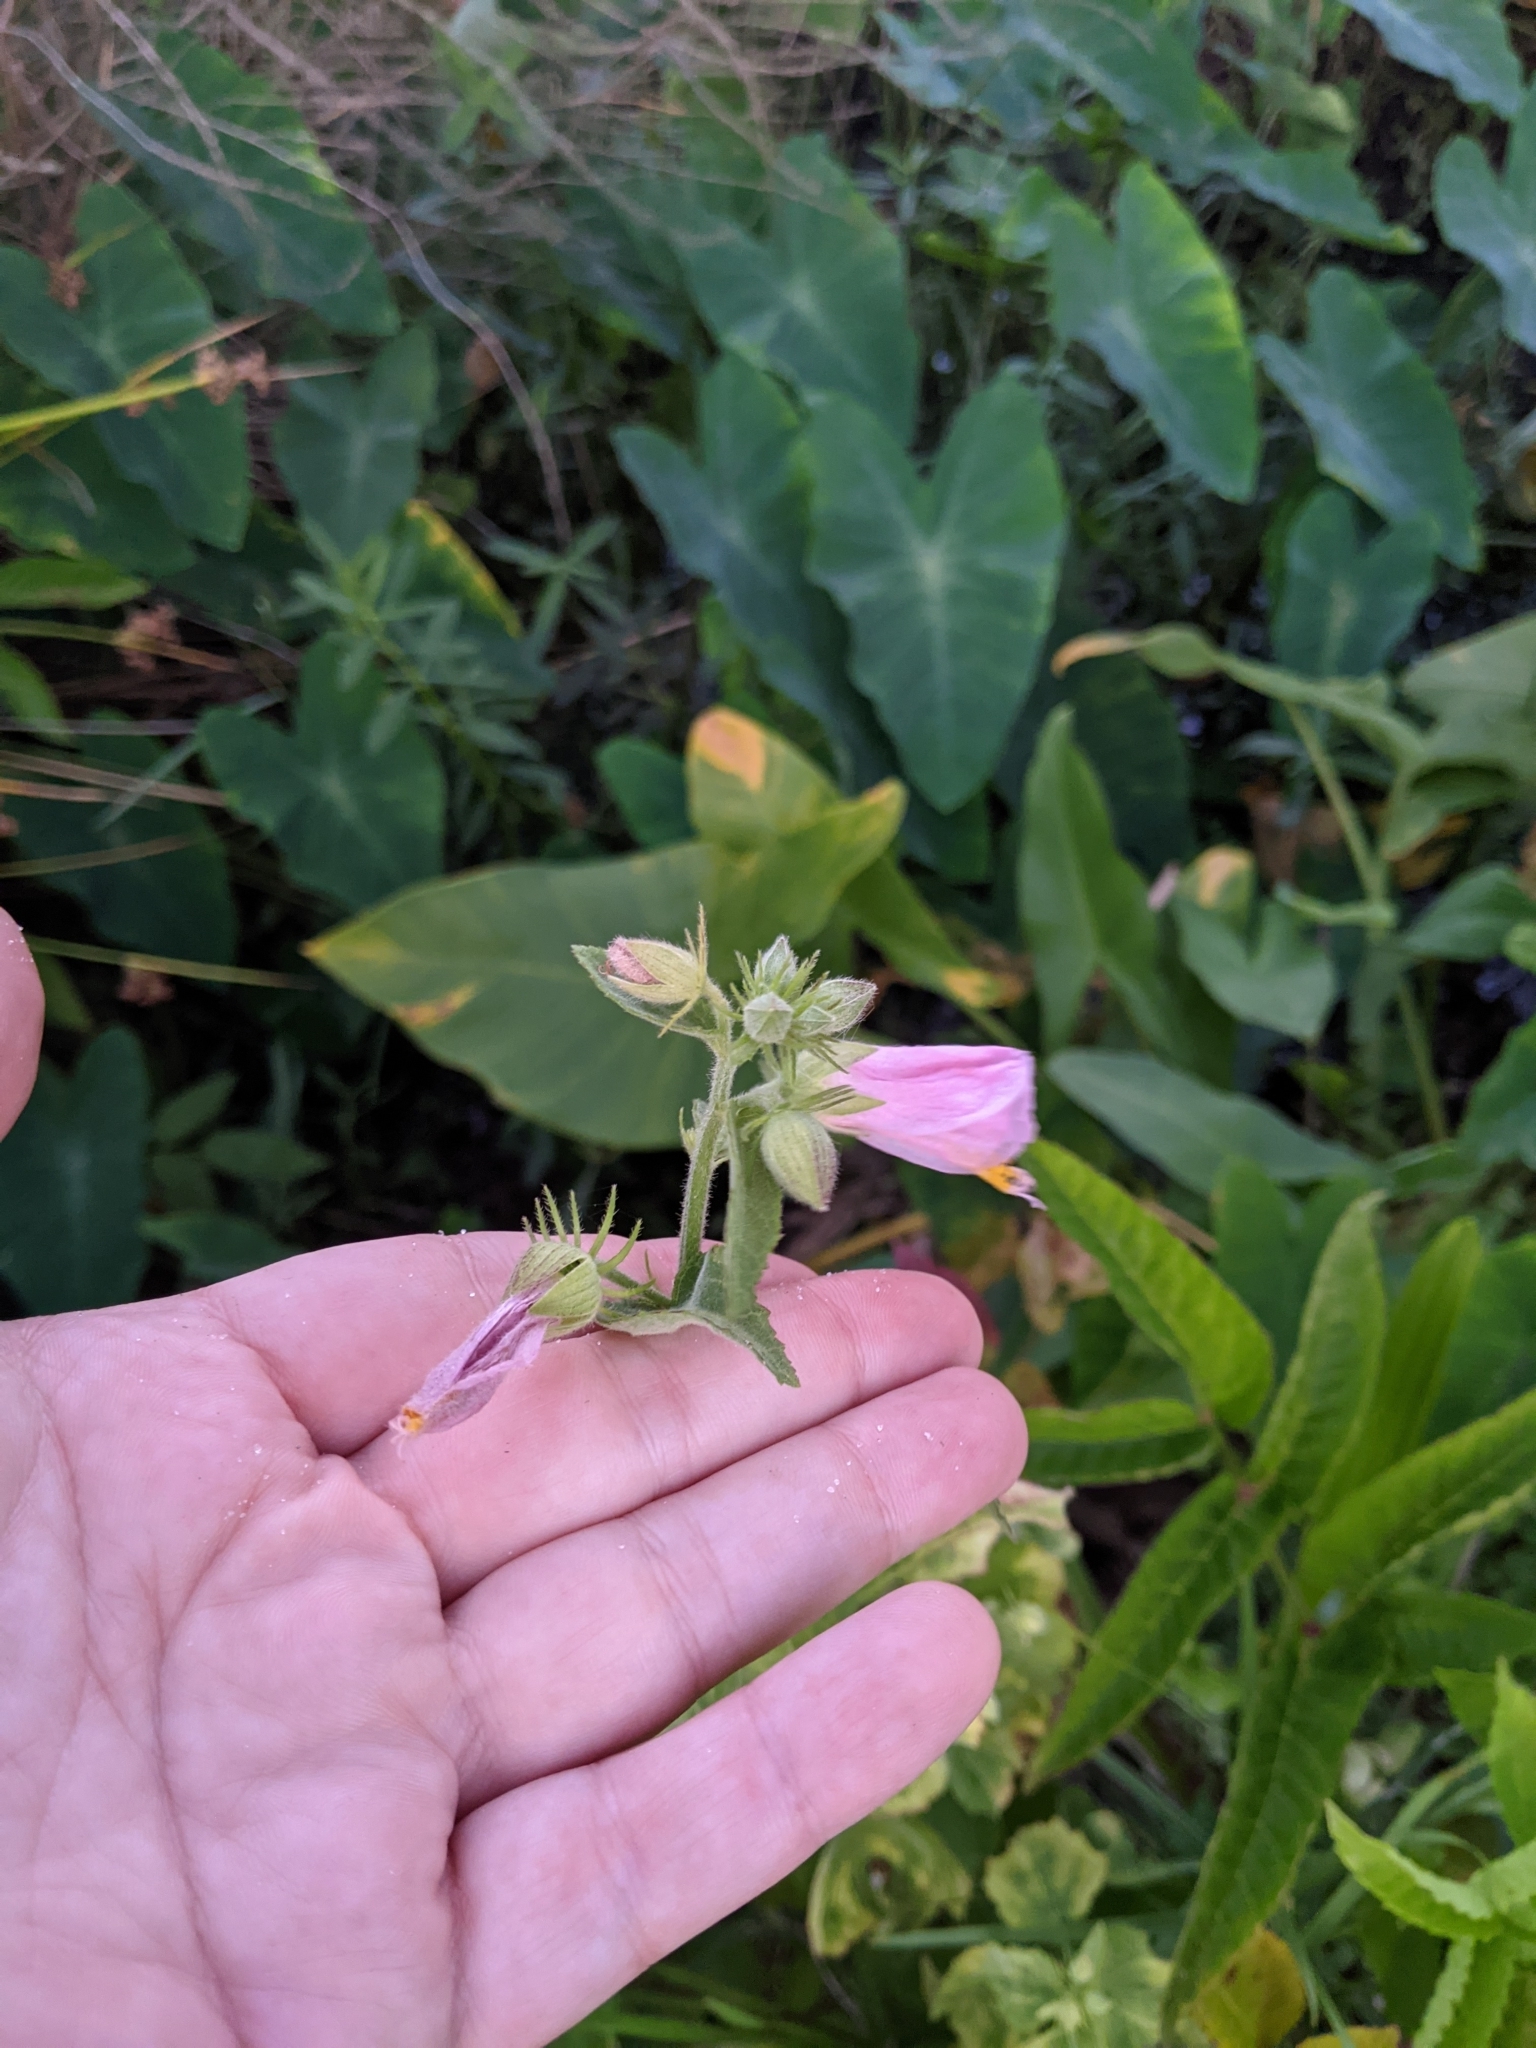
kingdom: Plantae
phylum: Tracheophyta
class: Magnoliopsida
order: Malvales
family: Malvaceae
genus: Kosteletzkya
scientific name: Kosteletzkya pentacarpos
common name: Virginia saltmarsh mallow
